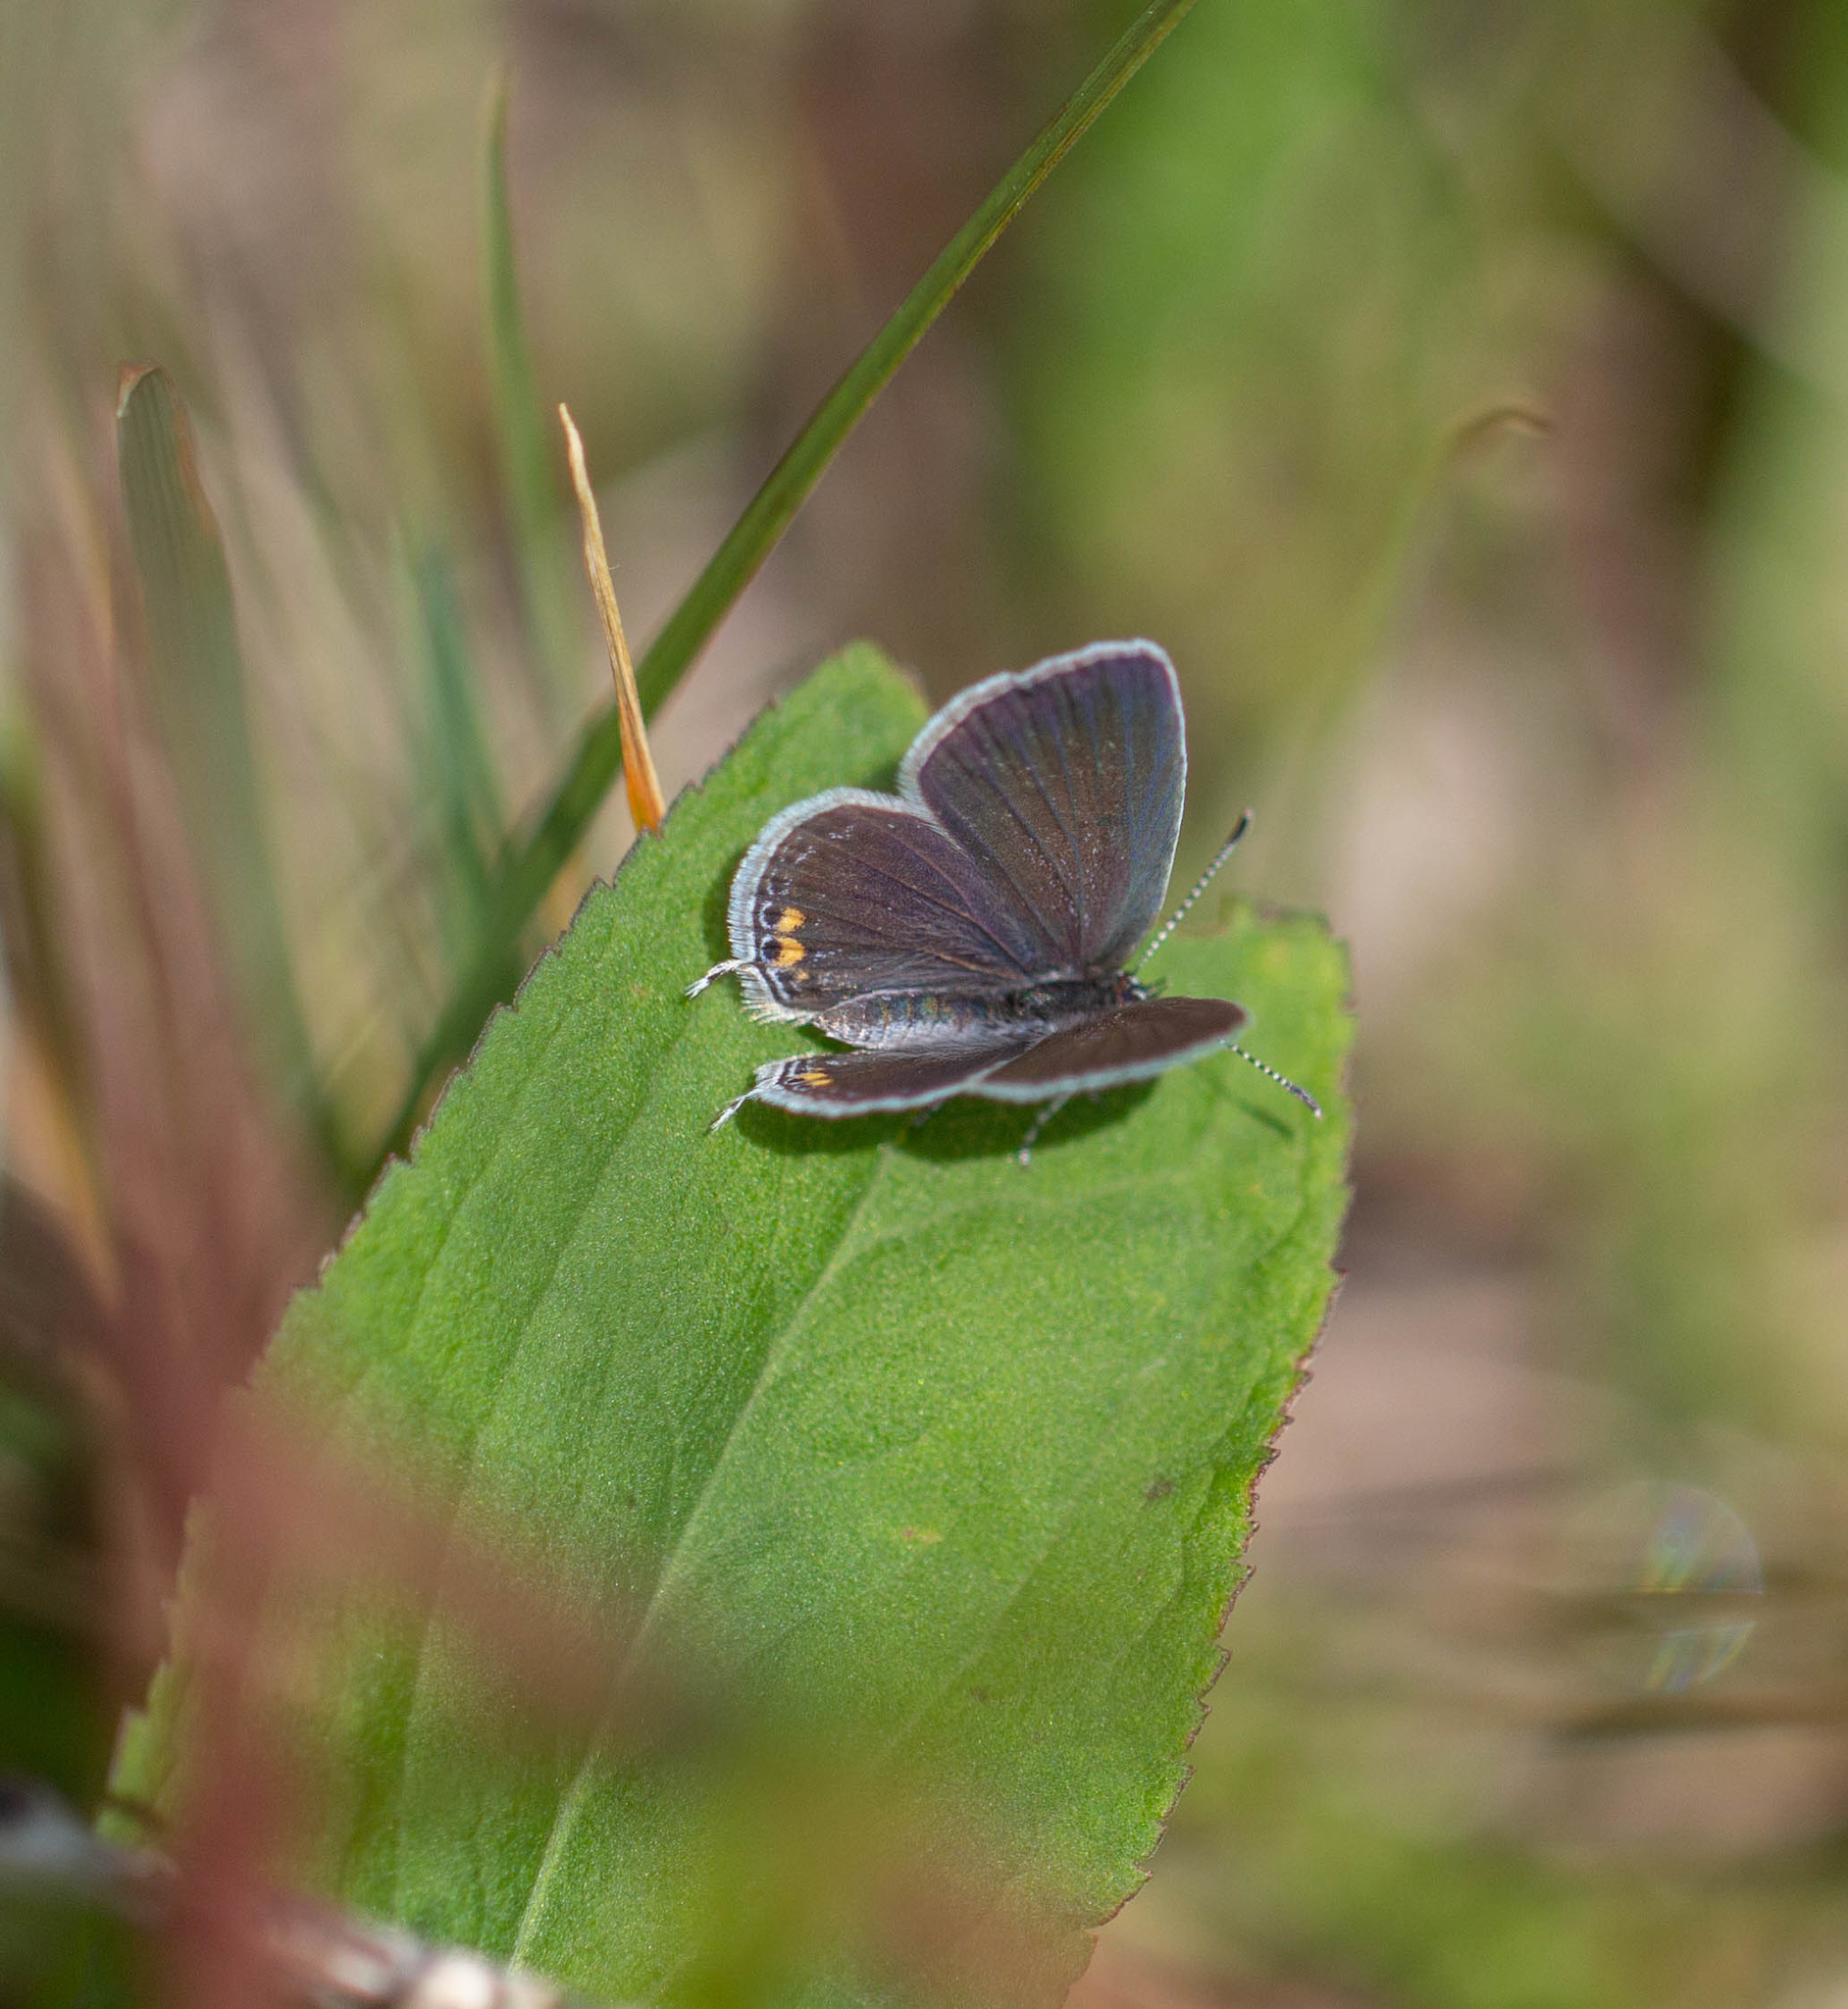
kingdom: Animalia
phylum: Arthropoda
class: Insecta
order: Lepidoptera
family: Lycaenidae
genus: Elkalyce
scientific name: Elkalyce comyntas
